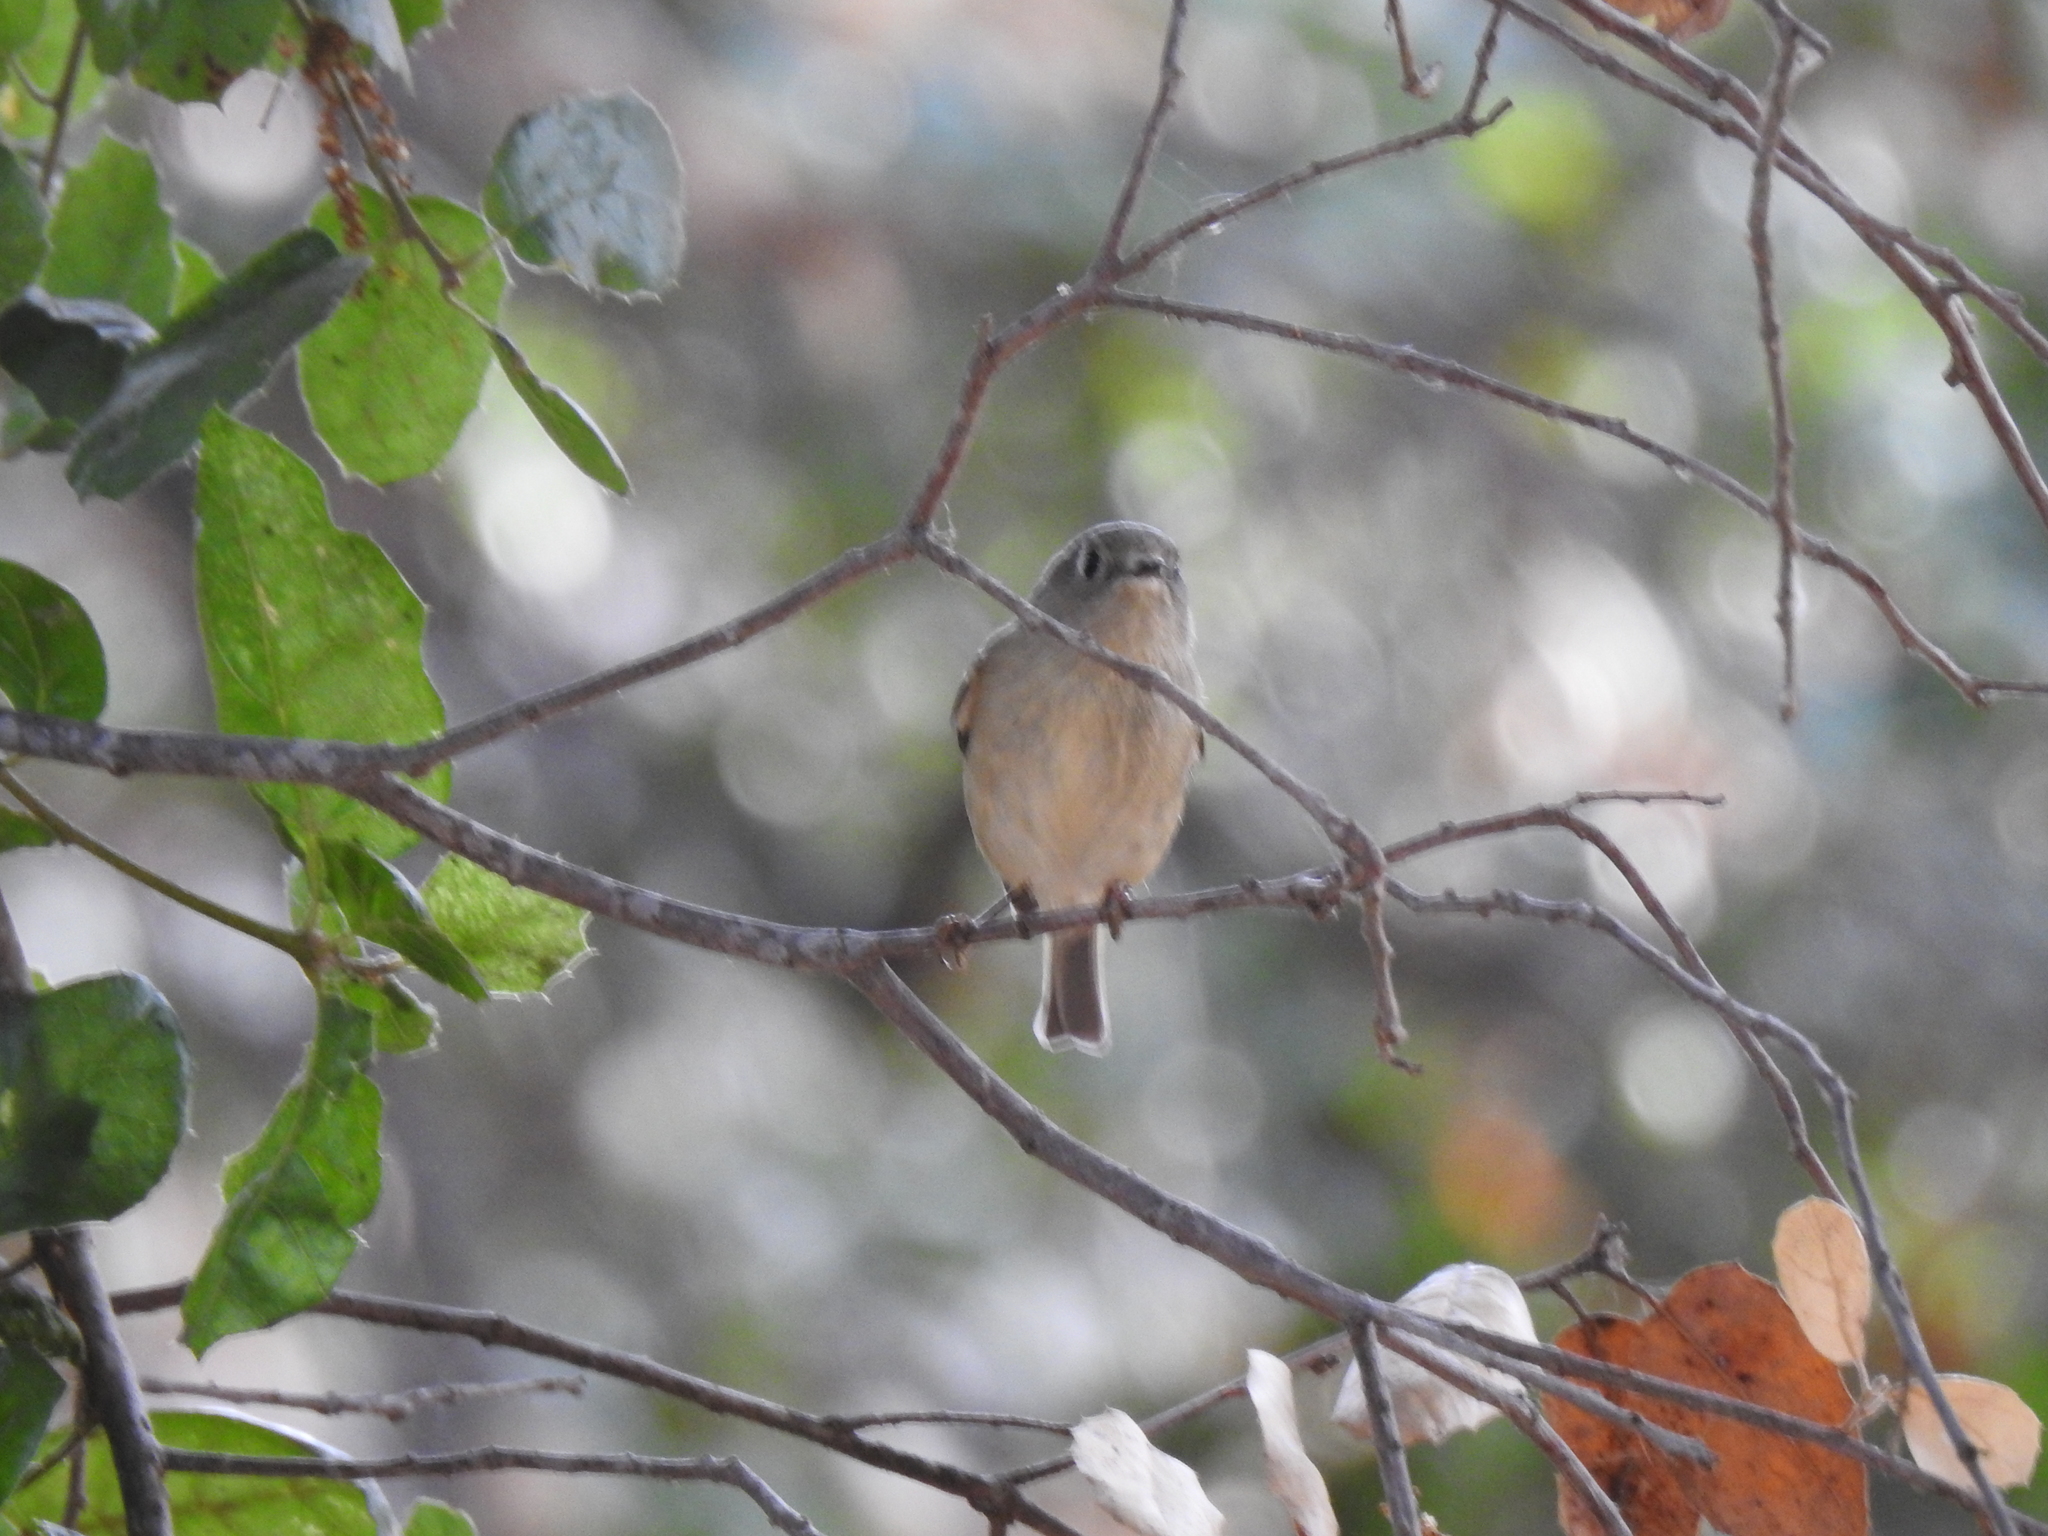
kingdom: Animalia
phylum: Chordata
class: Aves
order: Passeriformes
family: Regulidae
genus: Regulus
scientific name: Regulus calendula
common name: Ruby-crowned kinglet
